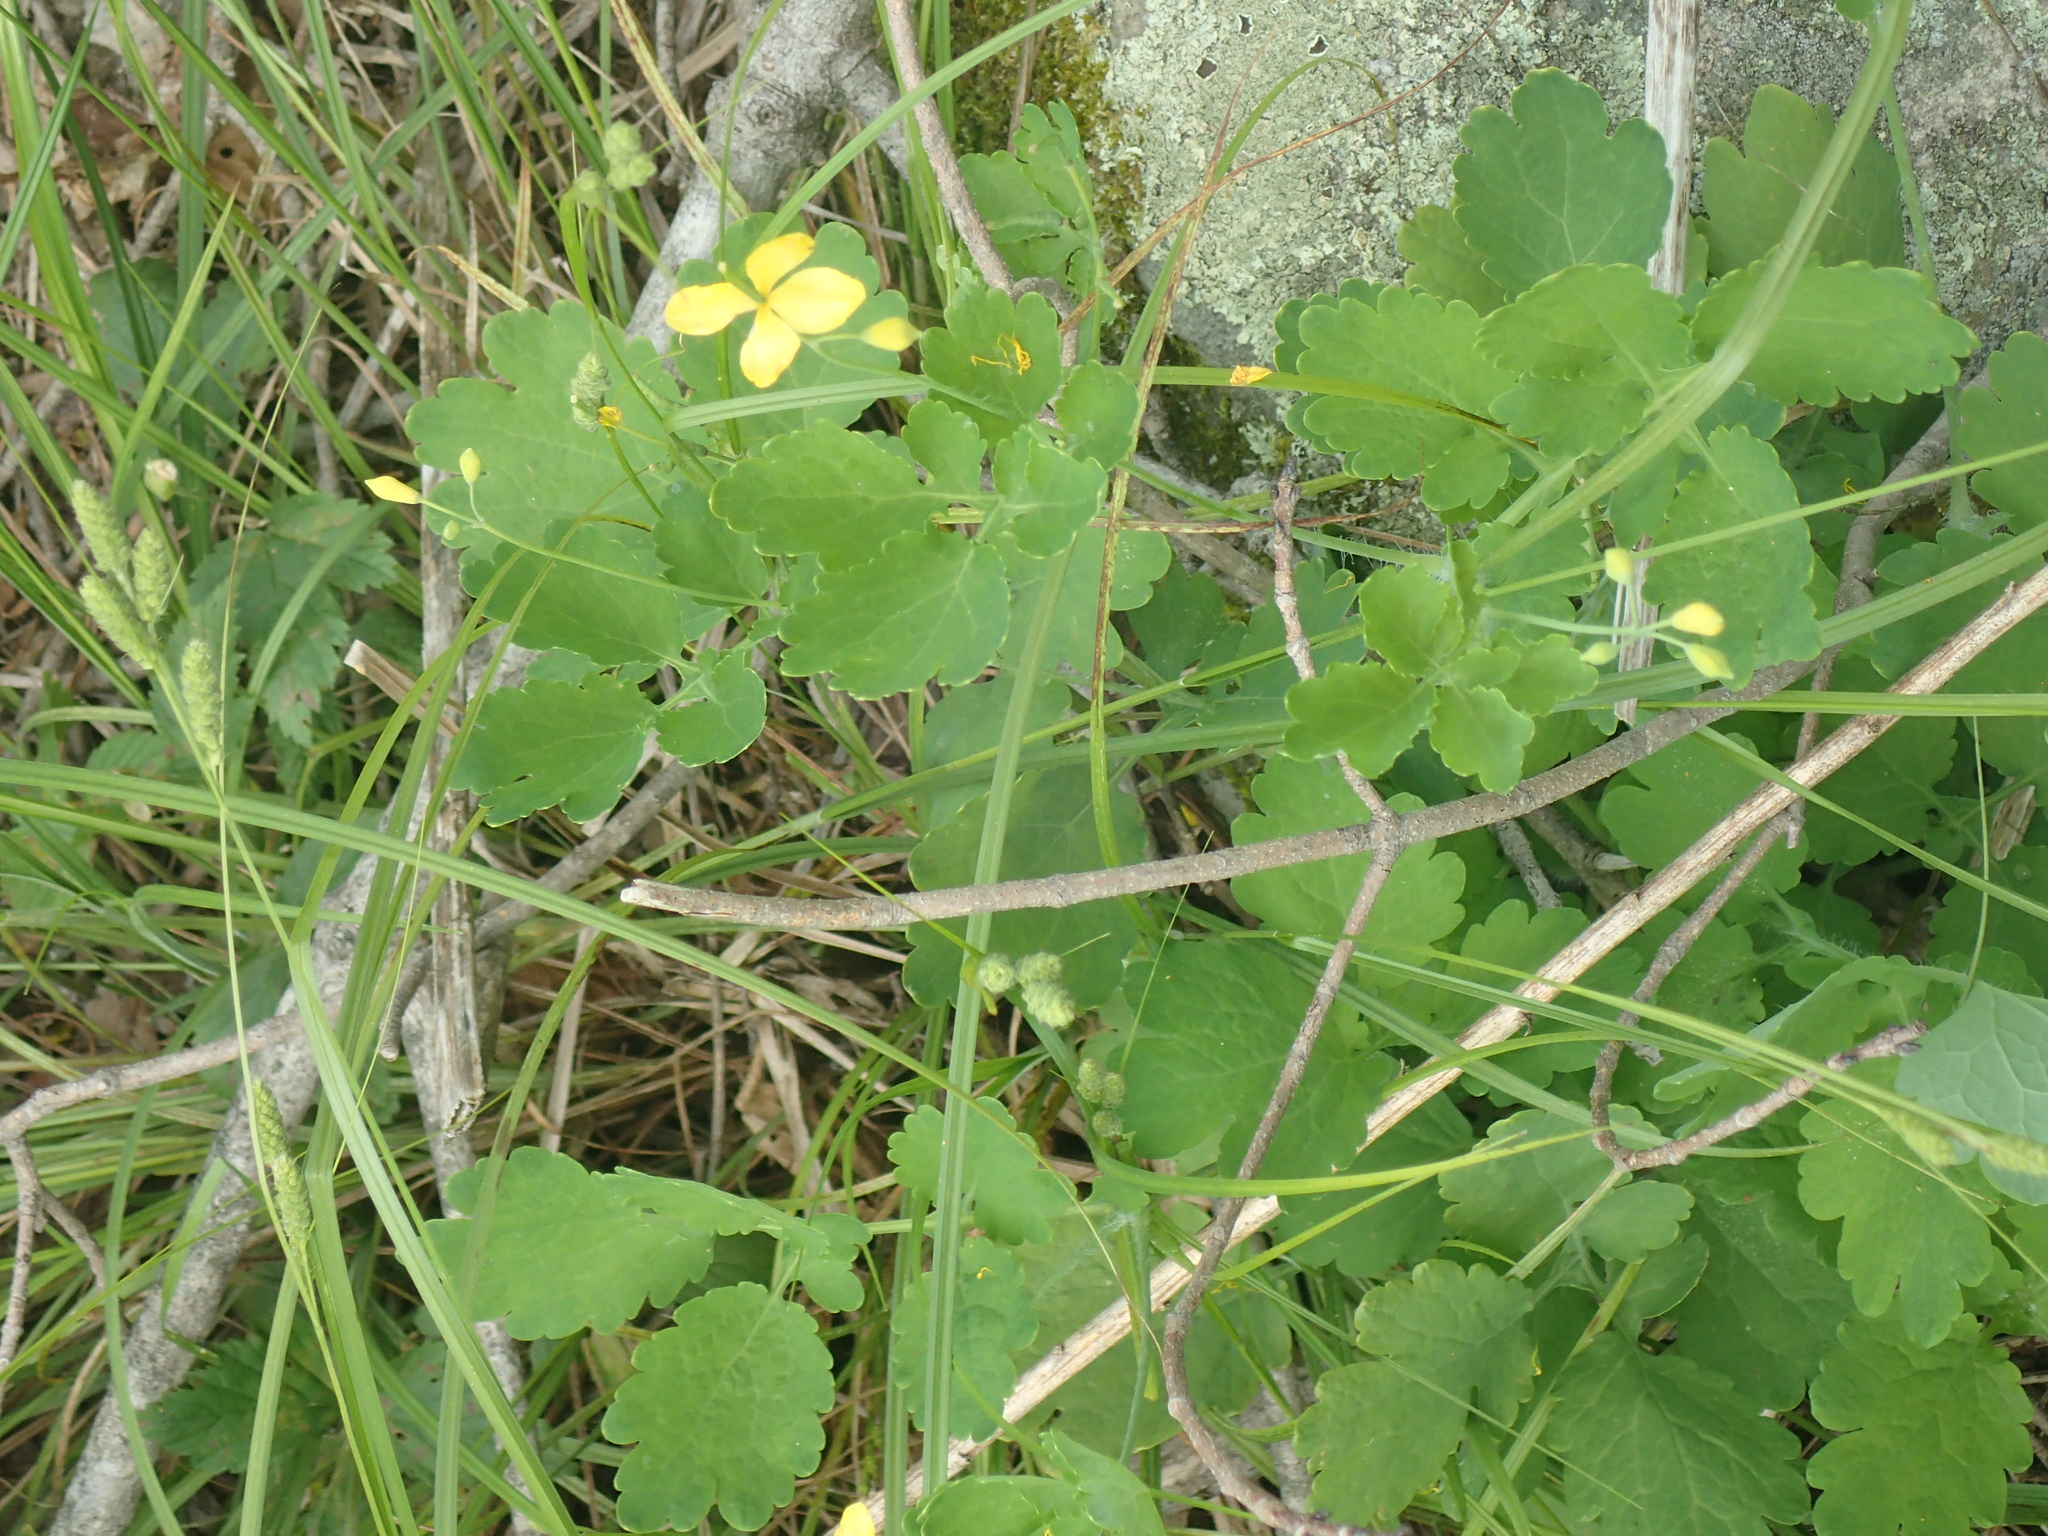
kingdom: Plantae
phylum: Tracheophyta
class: Magnoliopsida
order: Ranunculales
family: Papaveraceae
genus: Chelidonium
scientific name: Chelidonium majus
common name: Greater celandine
